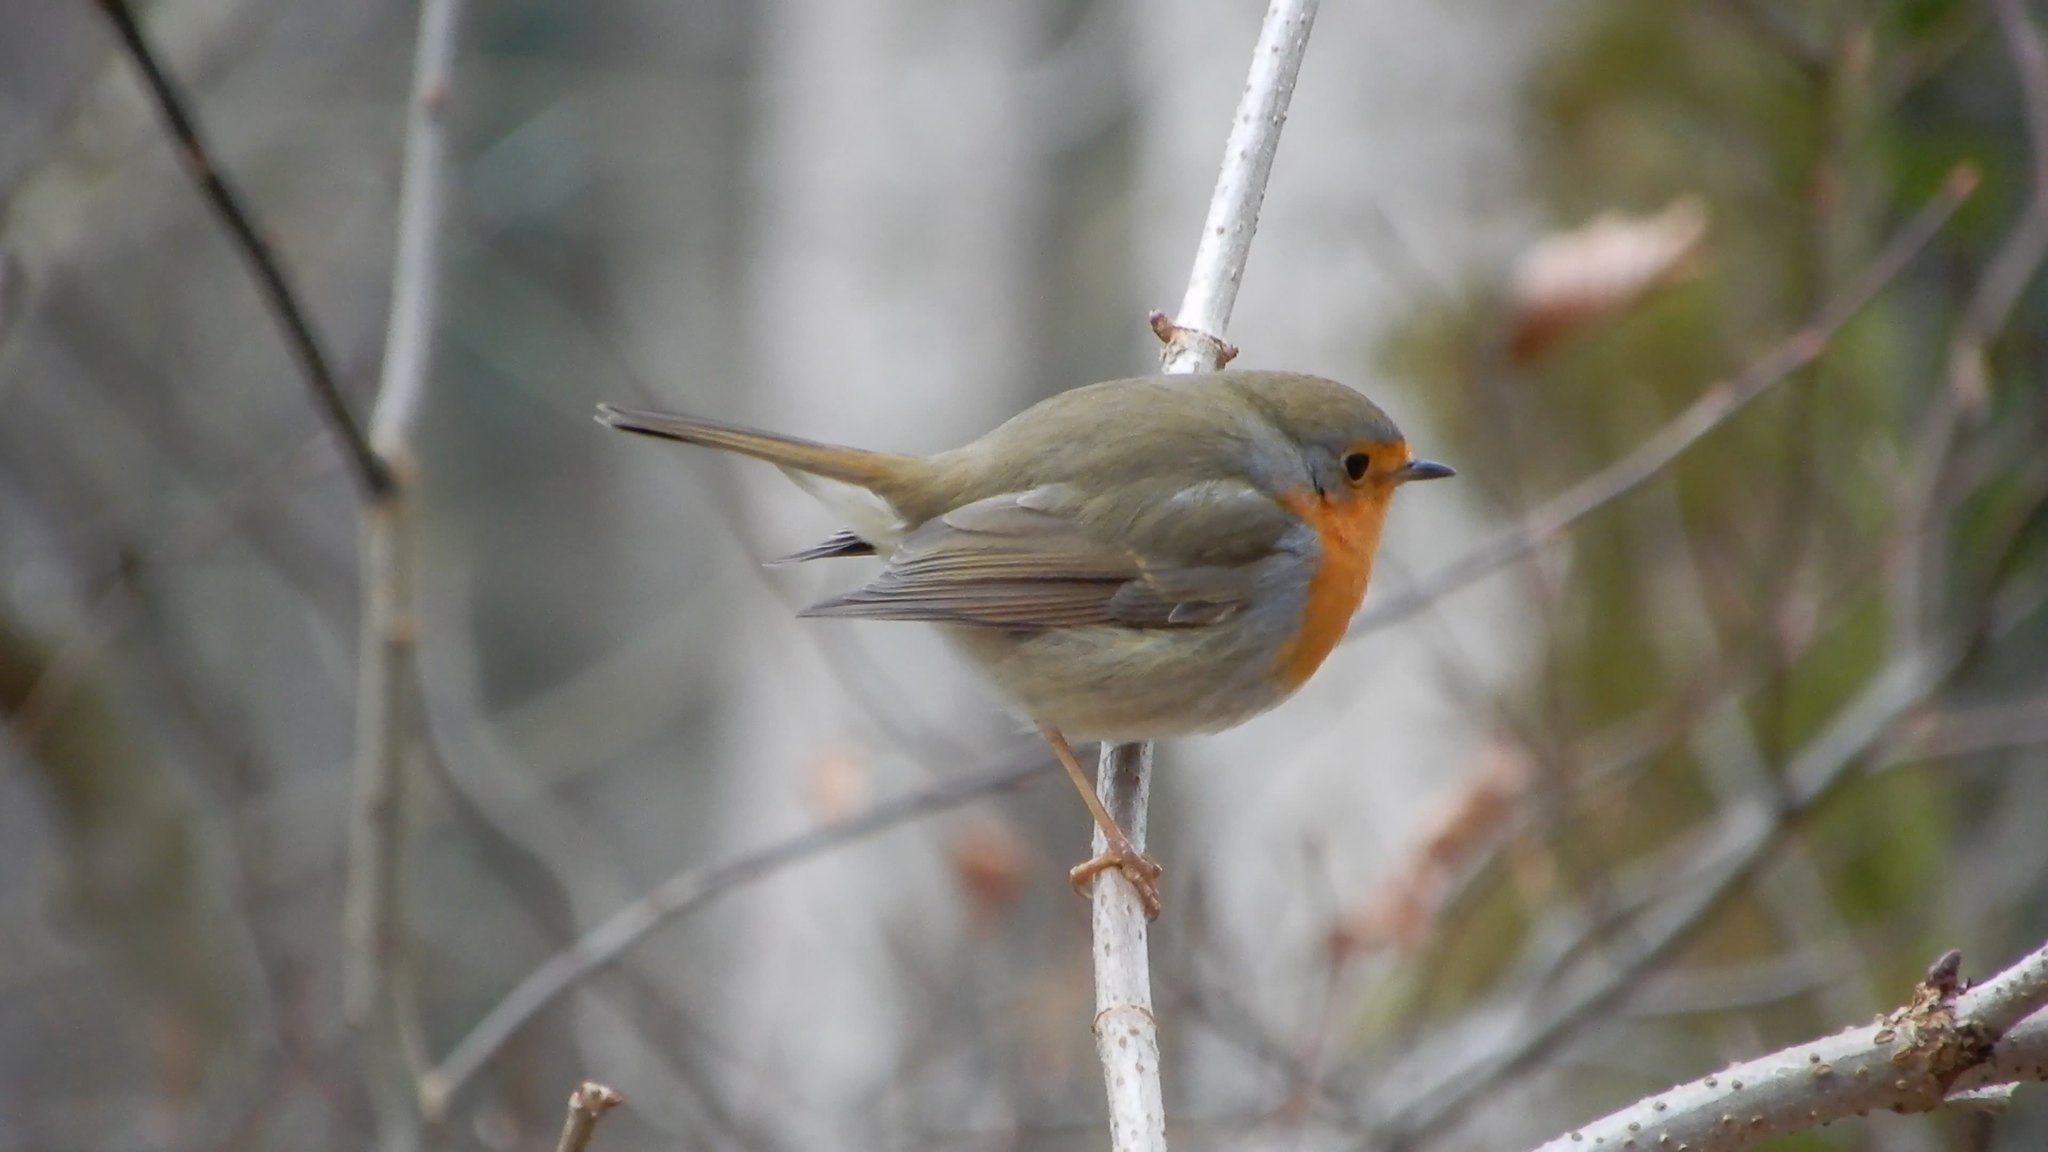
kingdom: Animalia
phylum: Chordata
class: Aves
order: Passeriformes
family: Muscicapidae
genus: Erithacus
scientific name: Erithacus rubecula
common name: European robin
